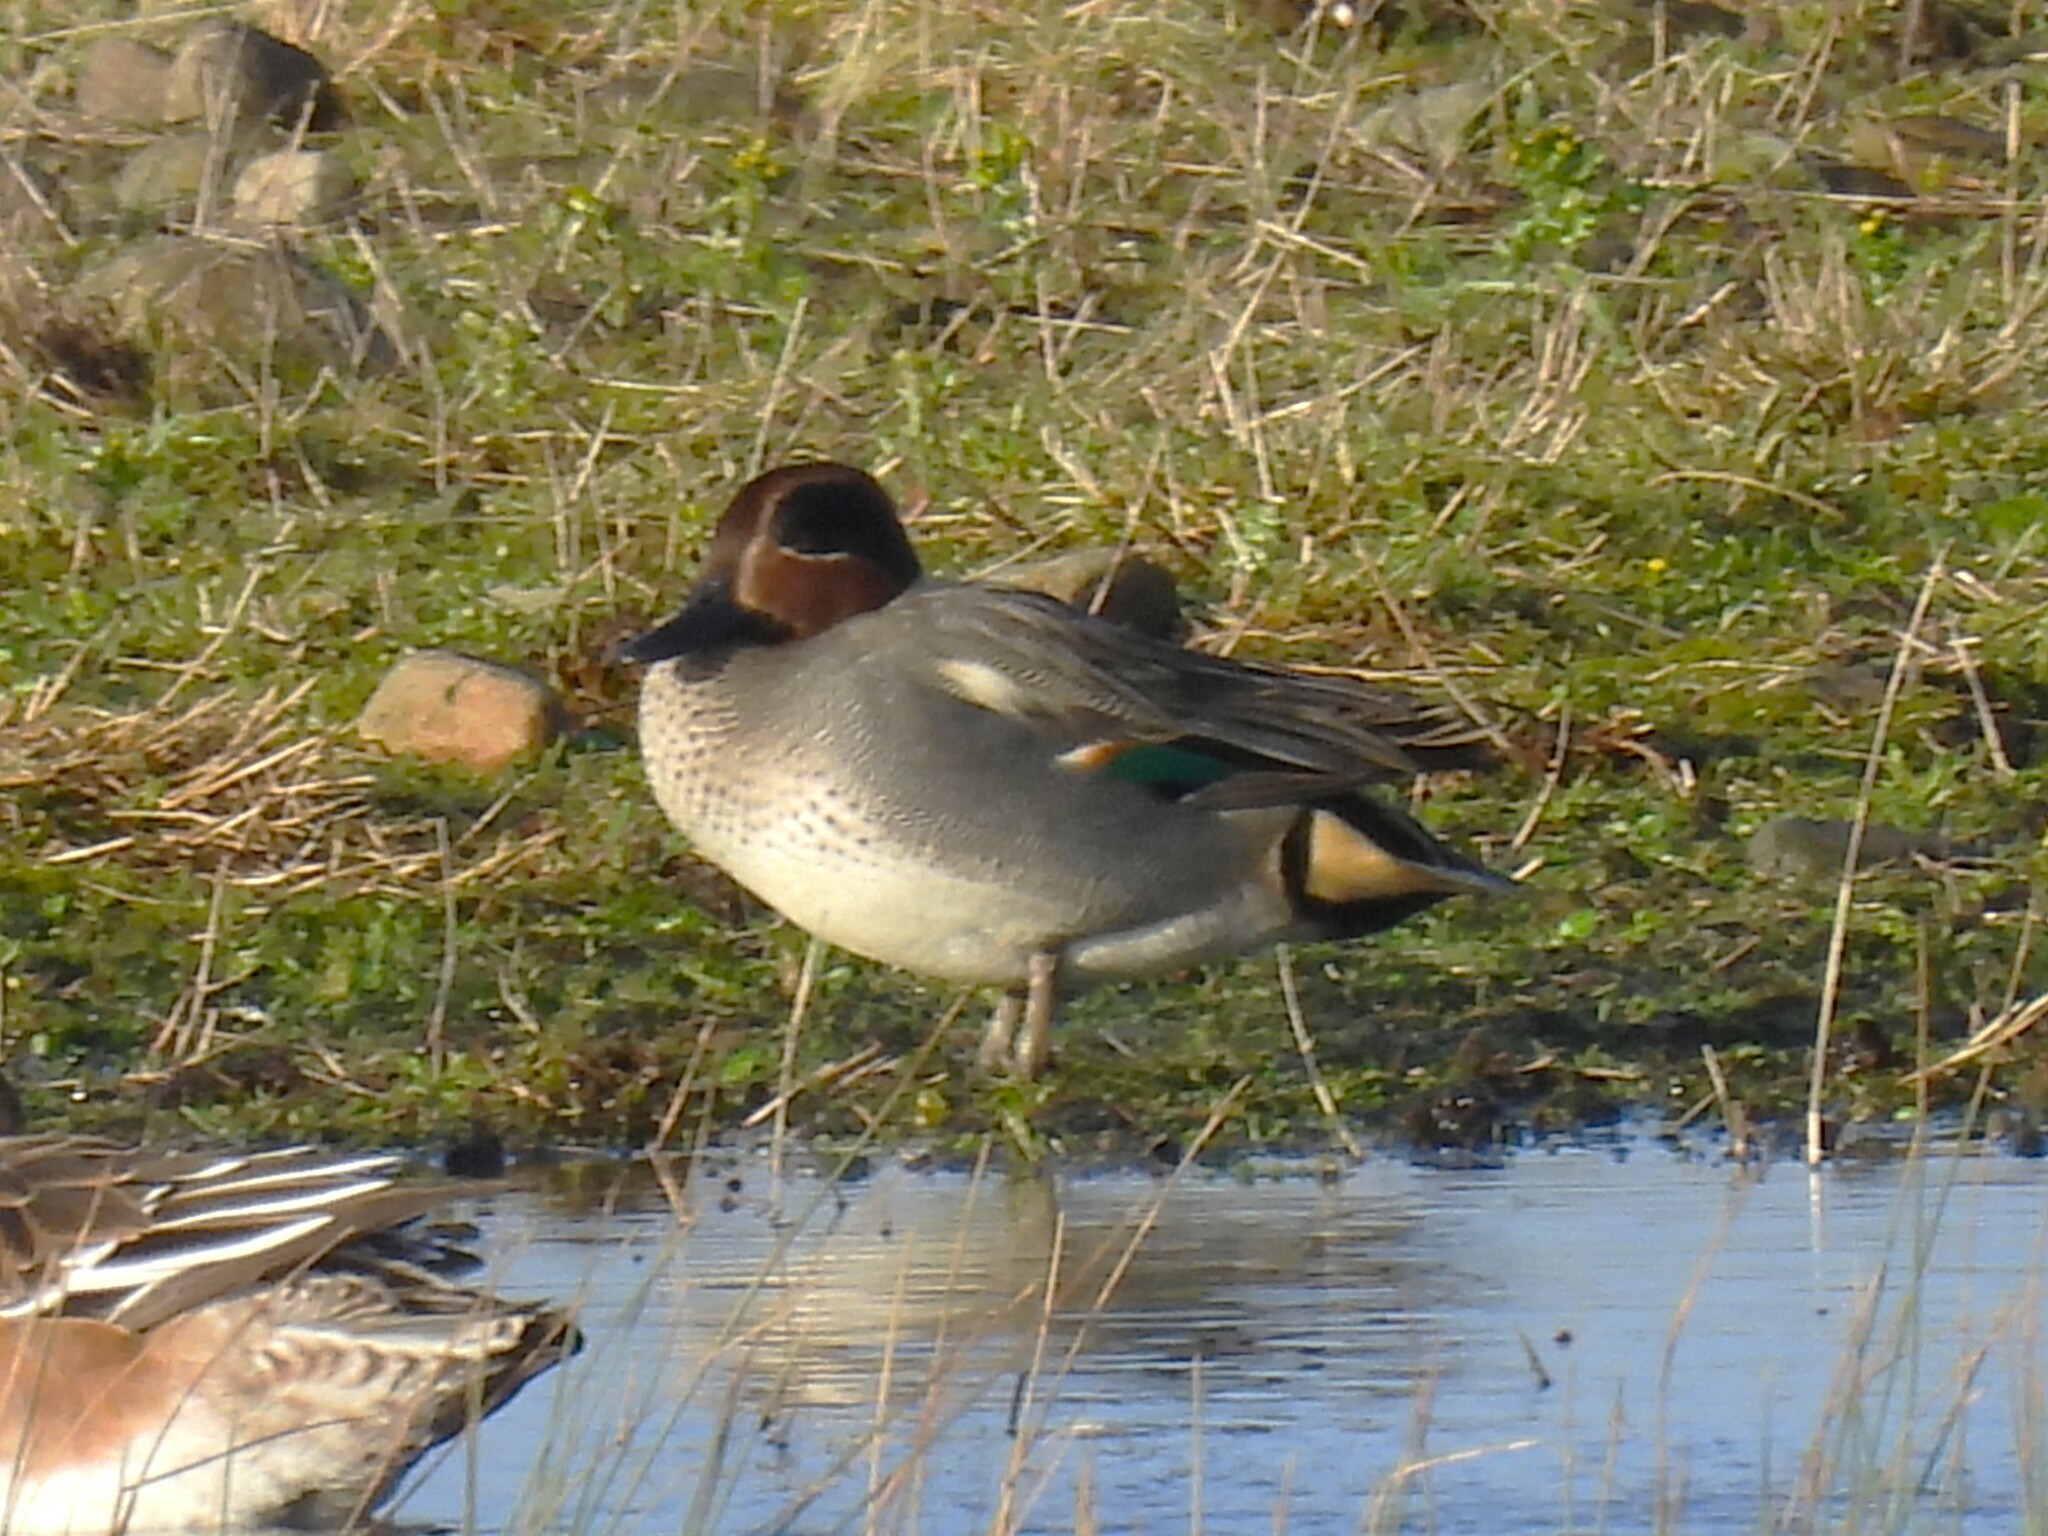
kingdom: Animalia
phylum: Chordata
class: Aves
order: Anseriformes
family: Anatidae
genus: Anas
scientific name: Anas crecca
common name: Eurasian teal
